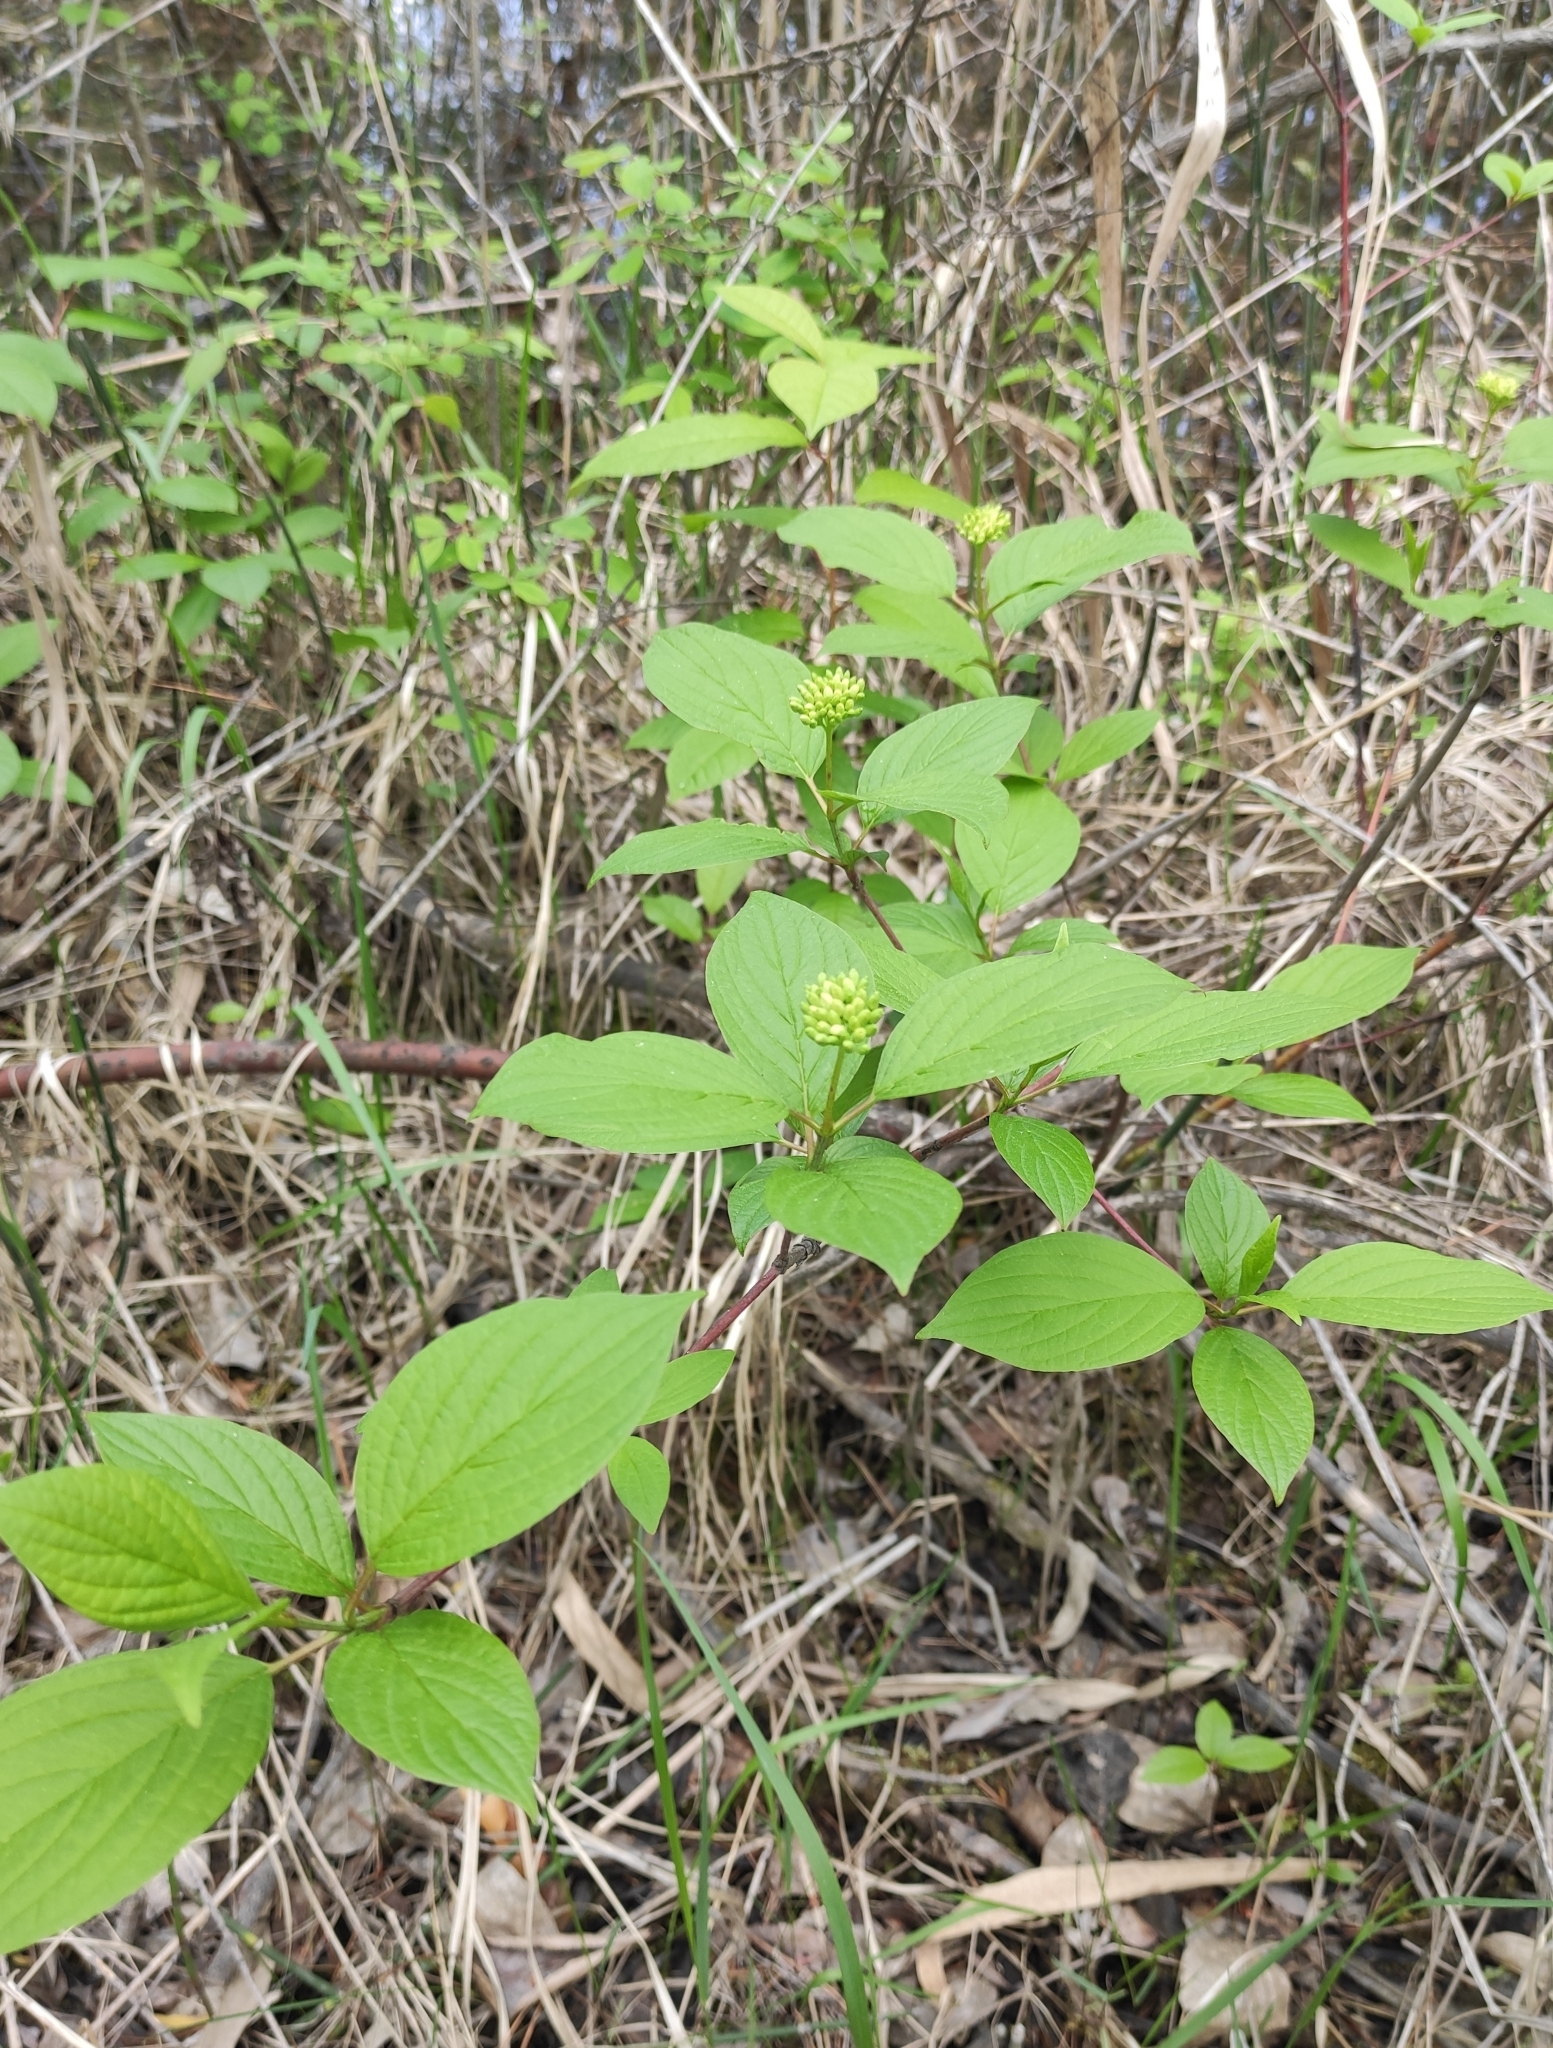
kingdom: Plantae
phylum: Tracheophyta
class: Magnoliopsida
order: Cornales
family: Cornaceae
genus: Cornus
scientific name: Cornus alba
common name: White dogwood
